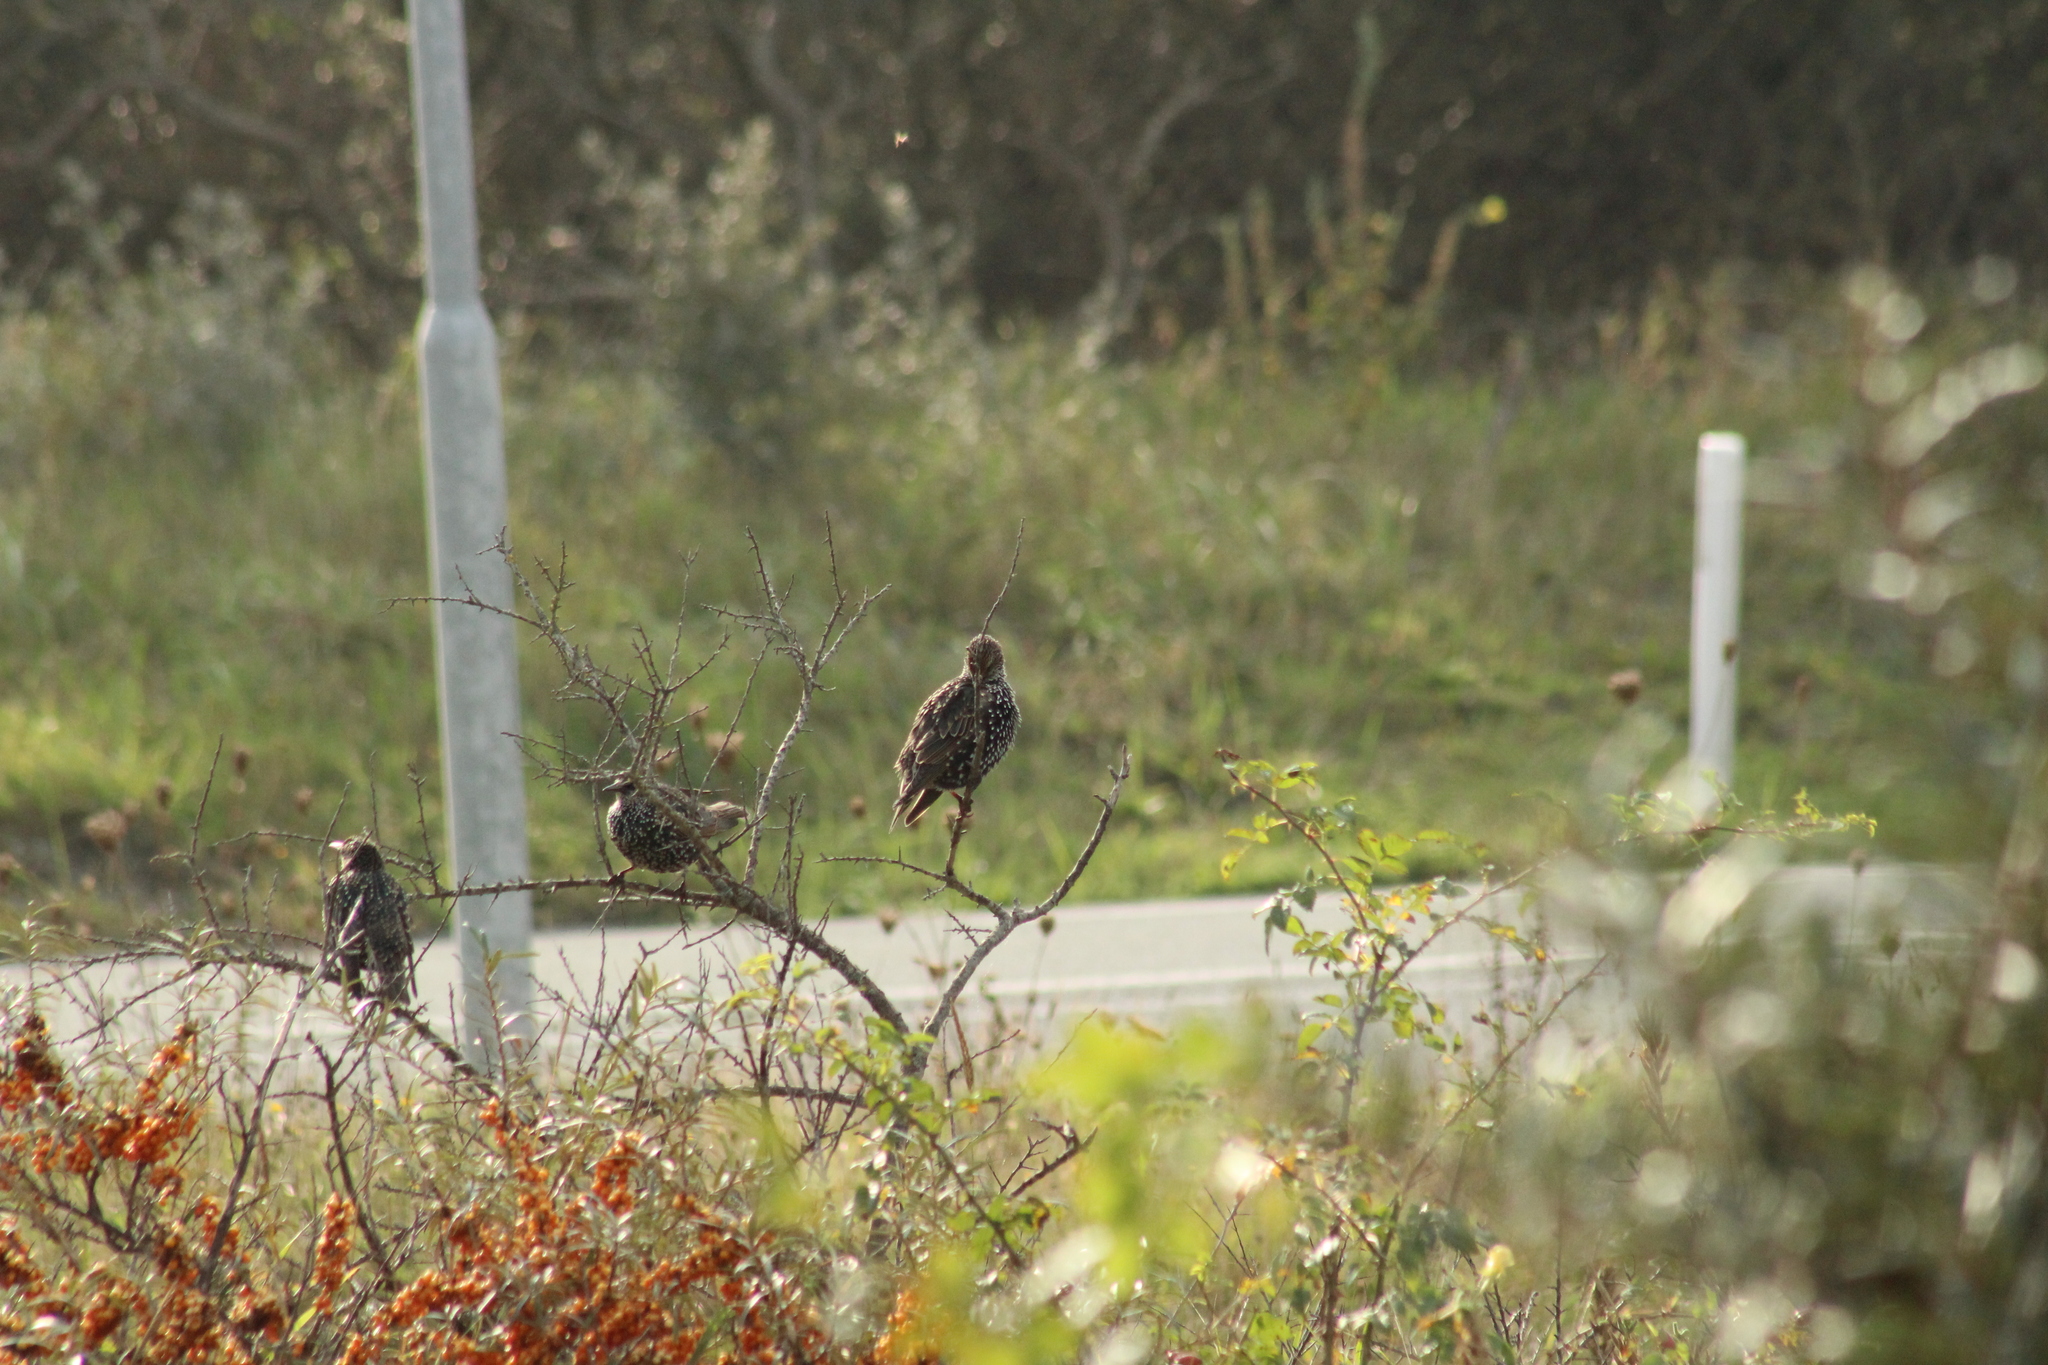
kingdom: Animalia
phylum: Chordata
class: Aves
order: Passeriformes
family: Sturnidae
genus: Sturnus
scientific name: Sturnus vulgaris
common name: Common starling
